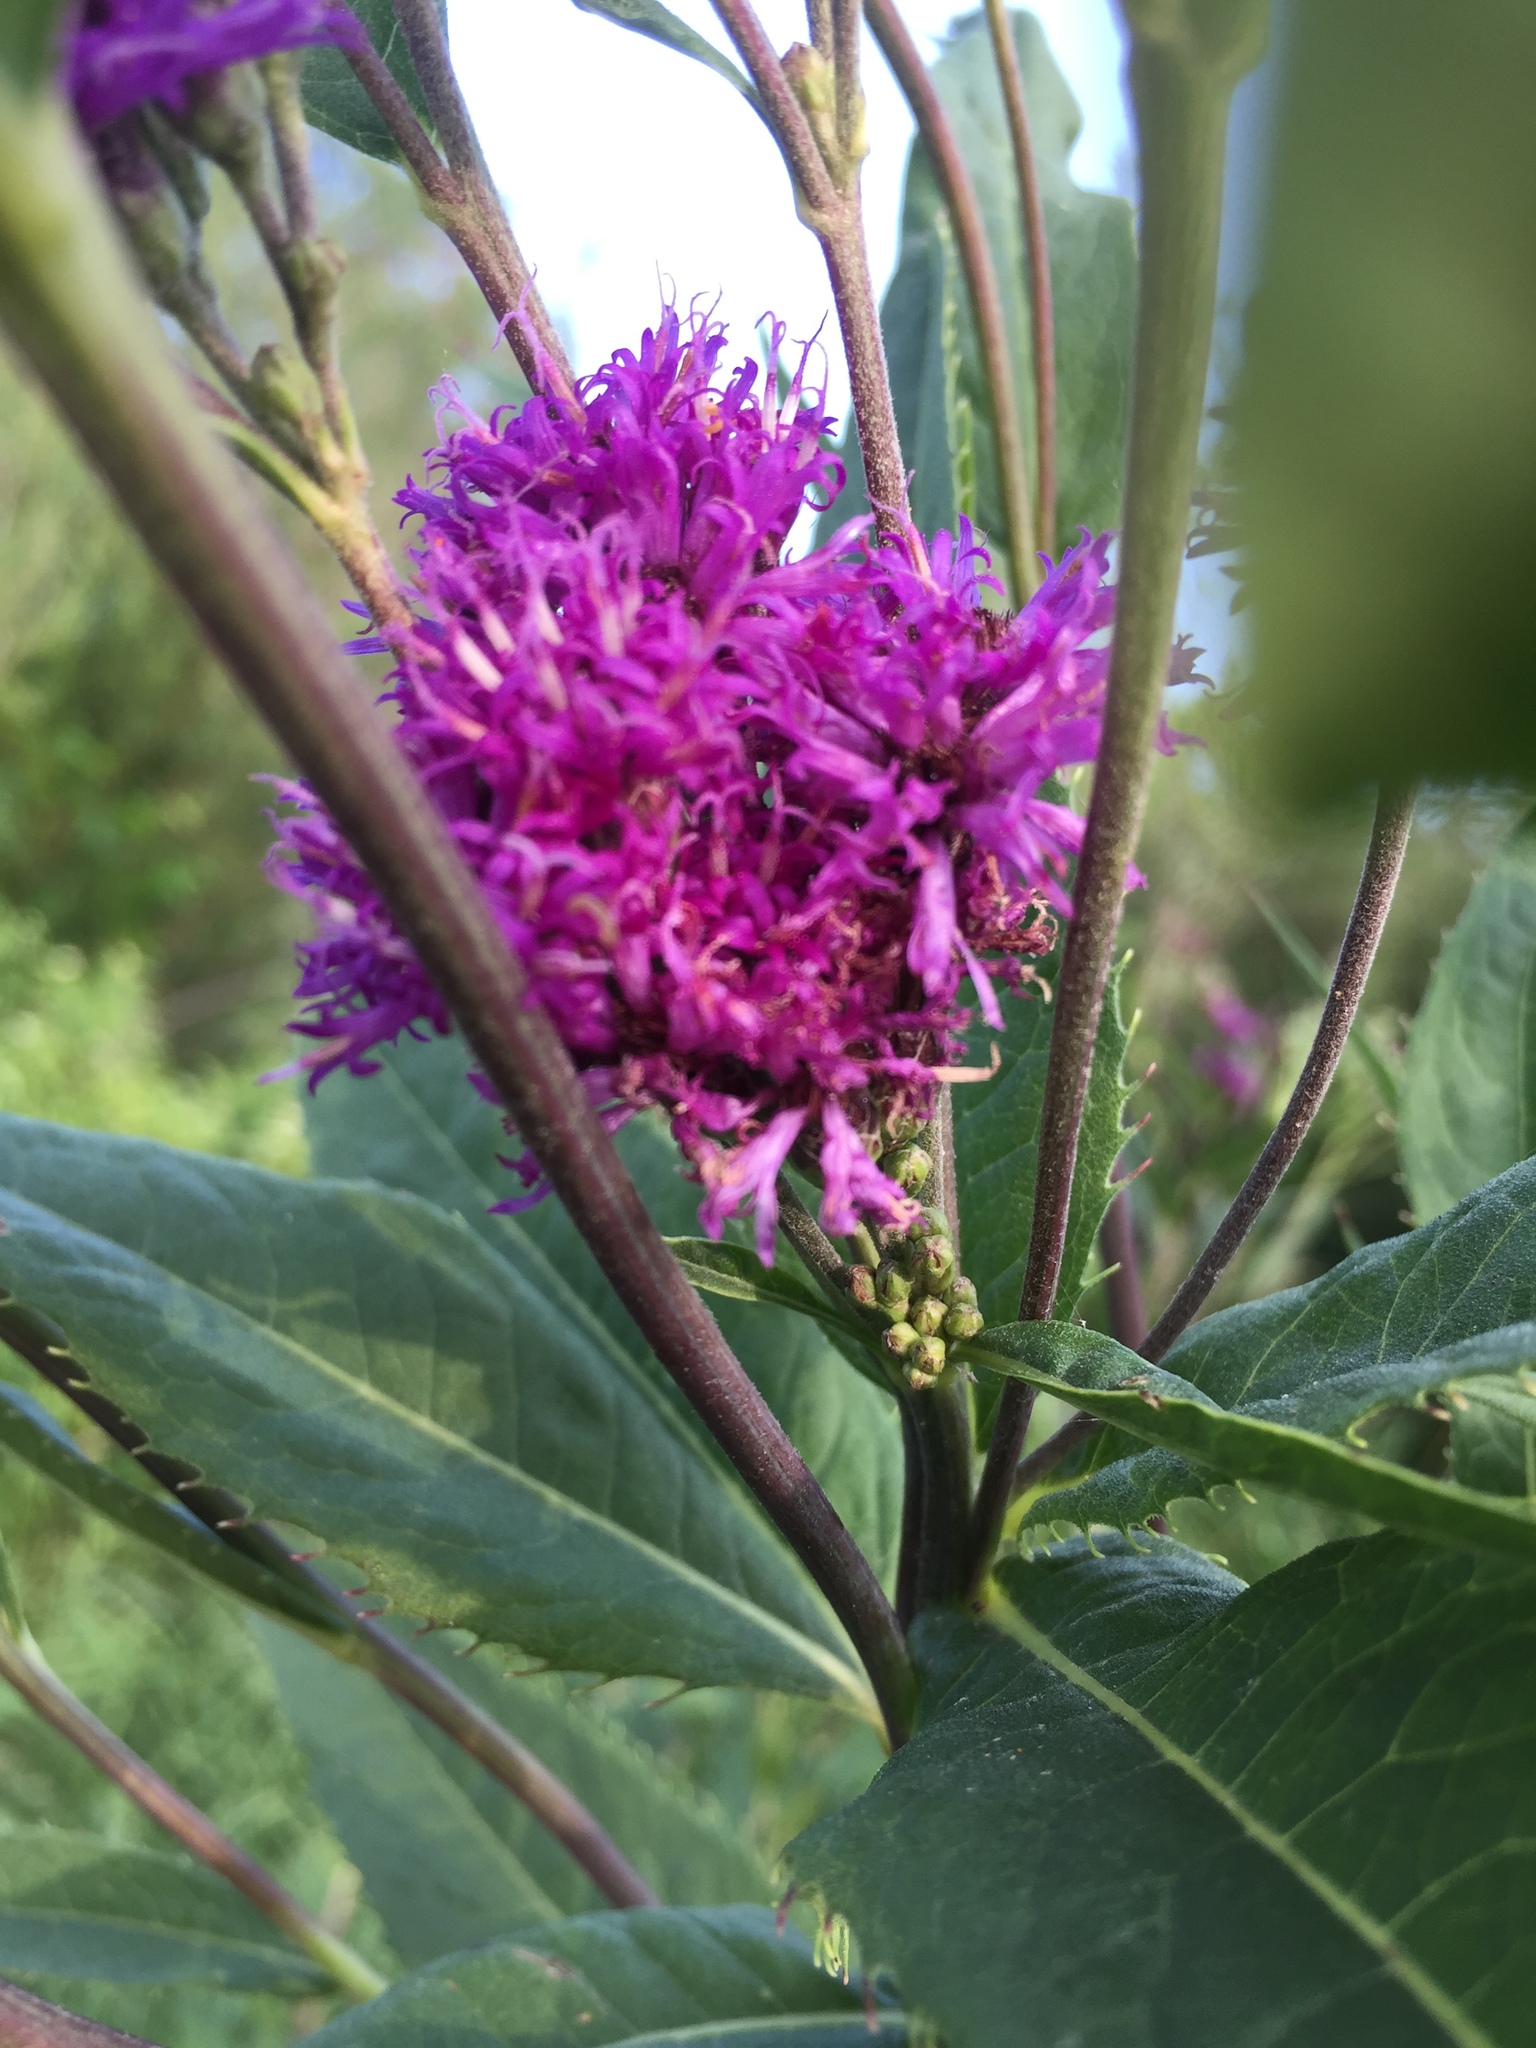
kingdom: Plantae
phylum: Tracheophyta
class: Magnoliopsida
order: Asterales
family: Asteraceae
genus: Vernonia
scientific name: Vernonia fasciculata
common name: Fascicled ironweed
